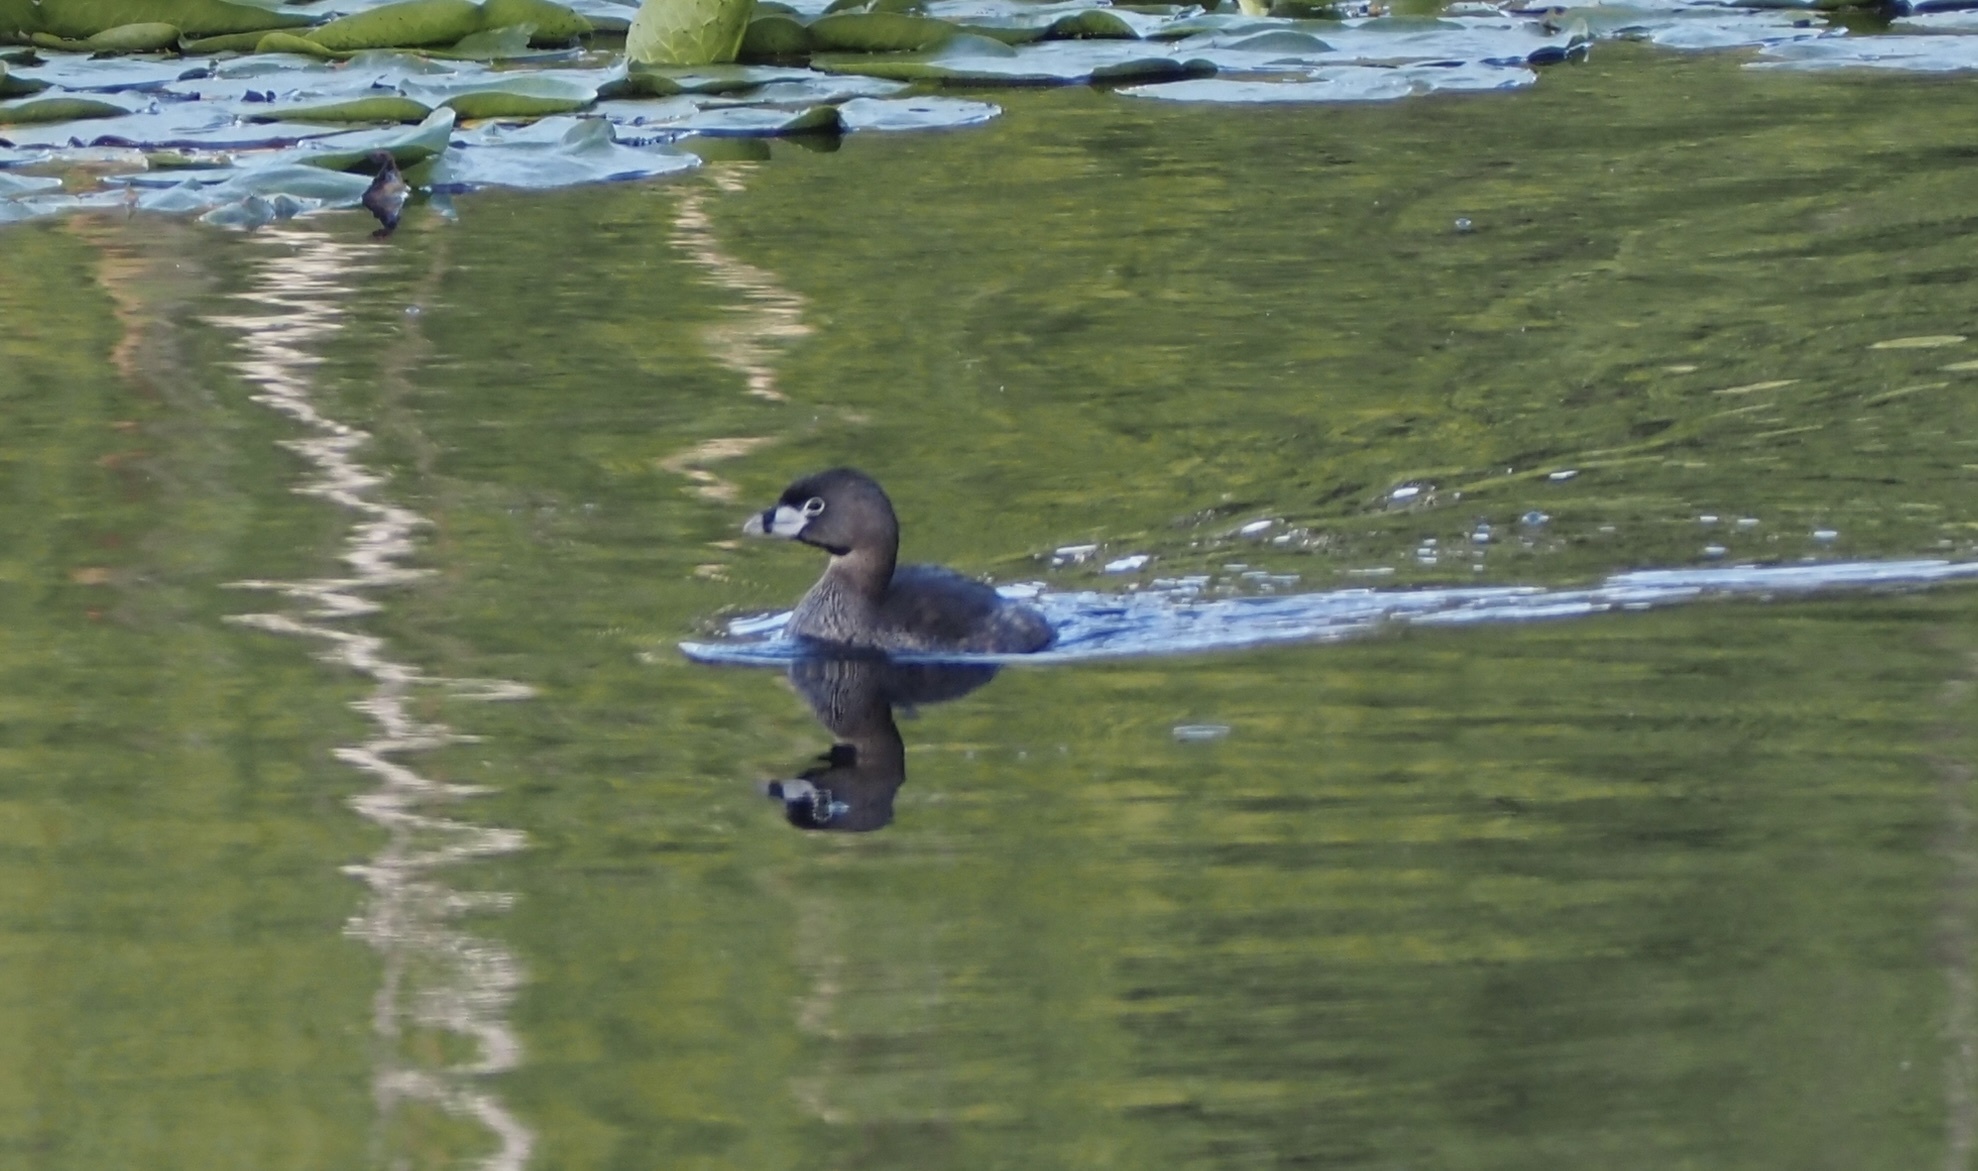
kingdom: Animalia
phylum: Chordata
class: Aves
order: Podicipediformes
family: Podicipedidae
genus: Podilymbus
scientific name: Podilymbus podiceps
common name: Pied-billed grebe
